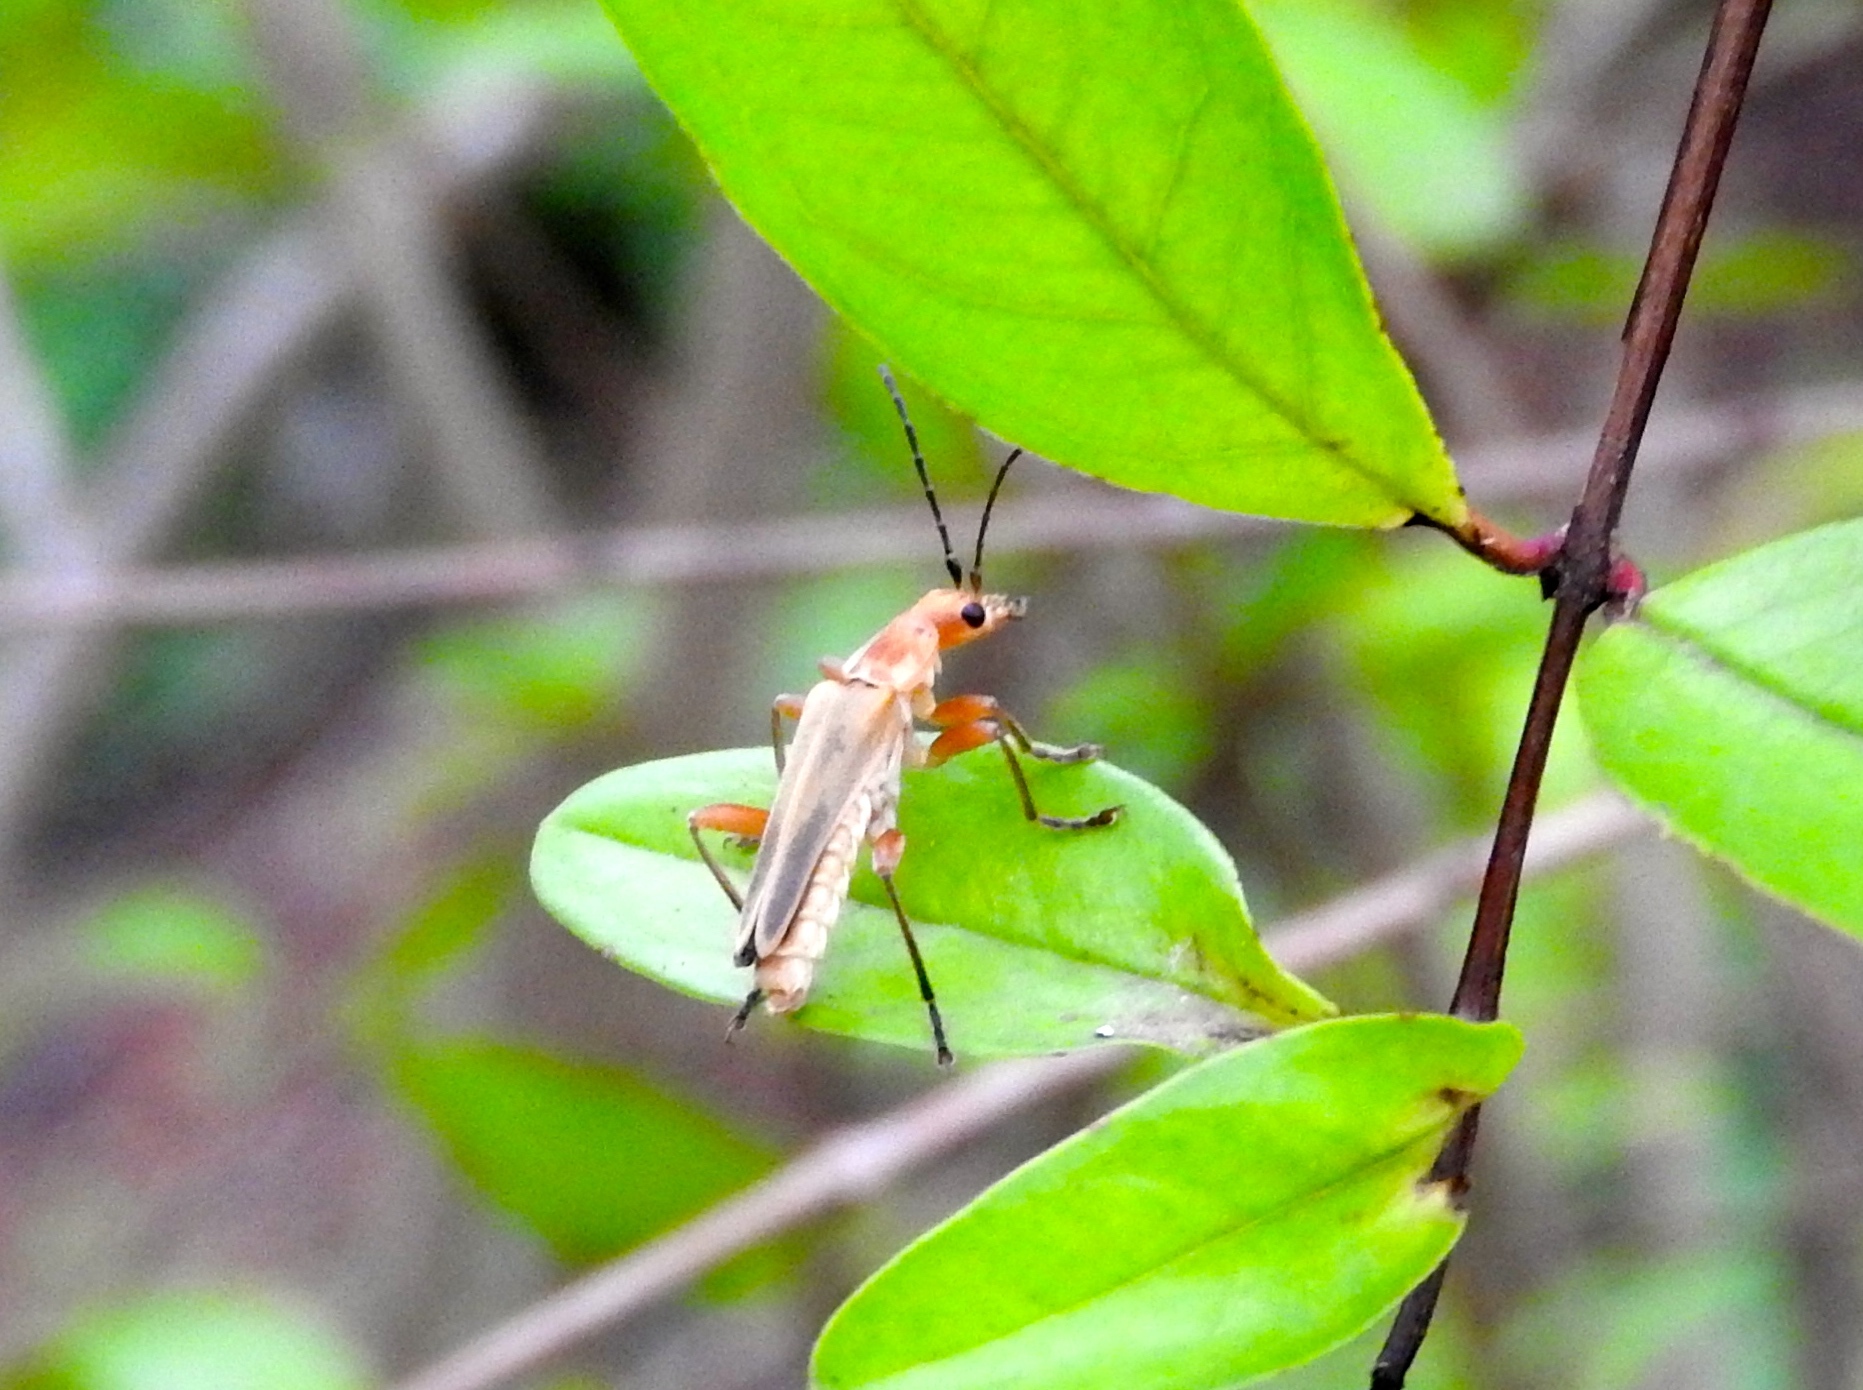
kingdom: Animalia
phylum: Arthropoda
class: Insecta
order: Coleoptera
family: Cantharidae
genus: Chauliognathus
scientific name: Chauliognathus
